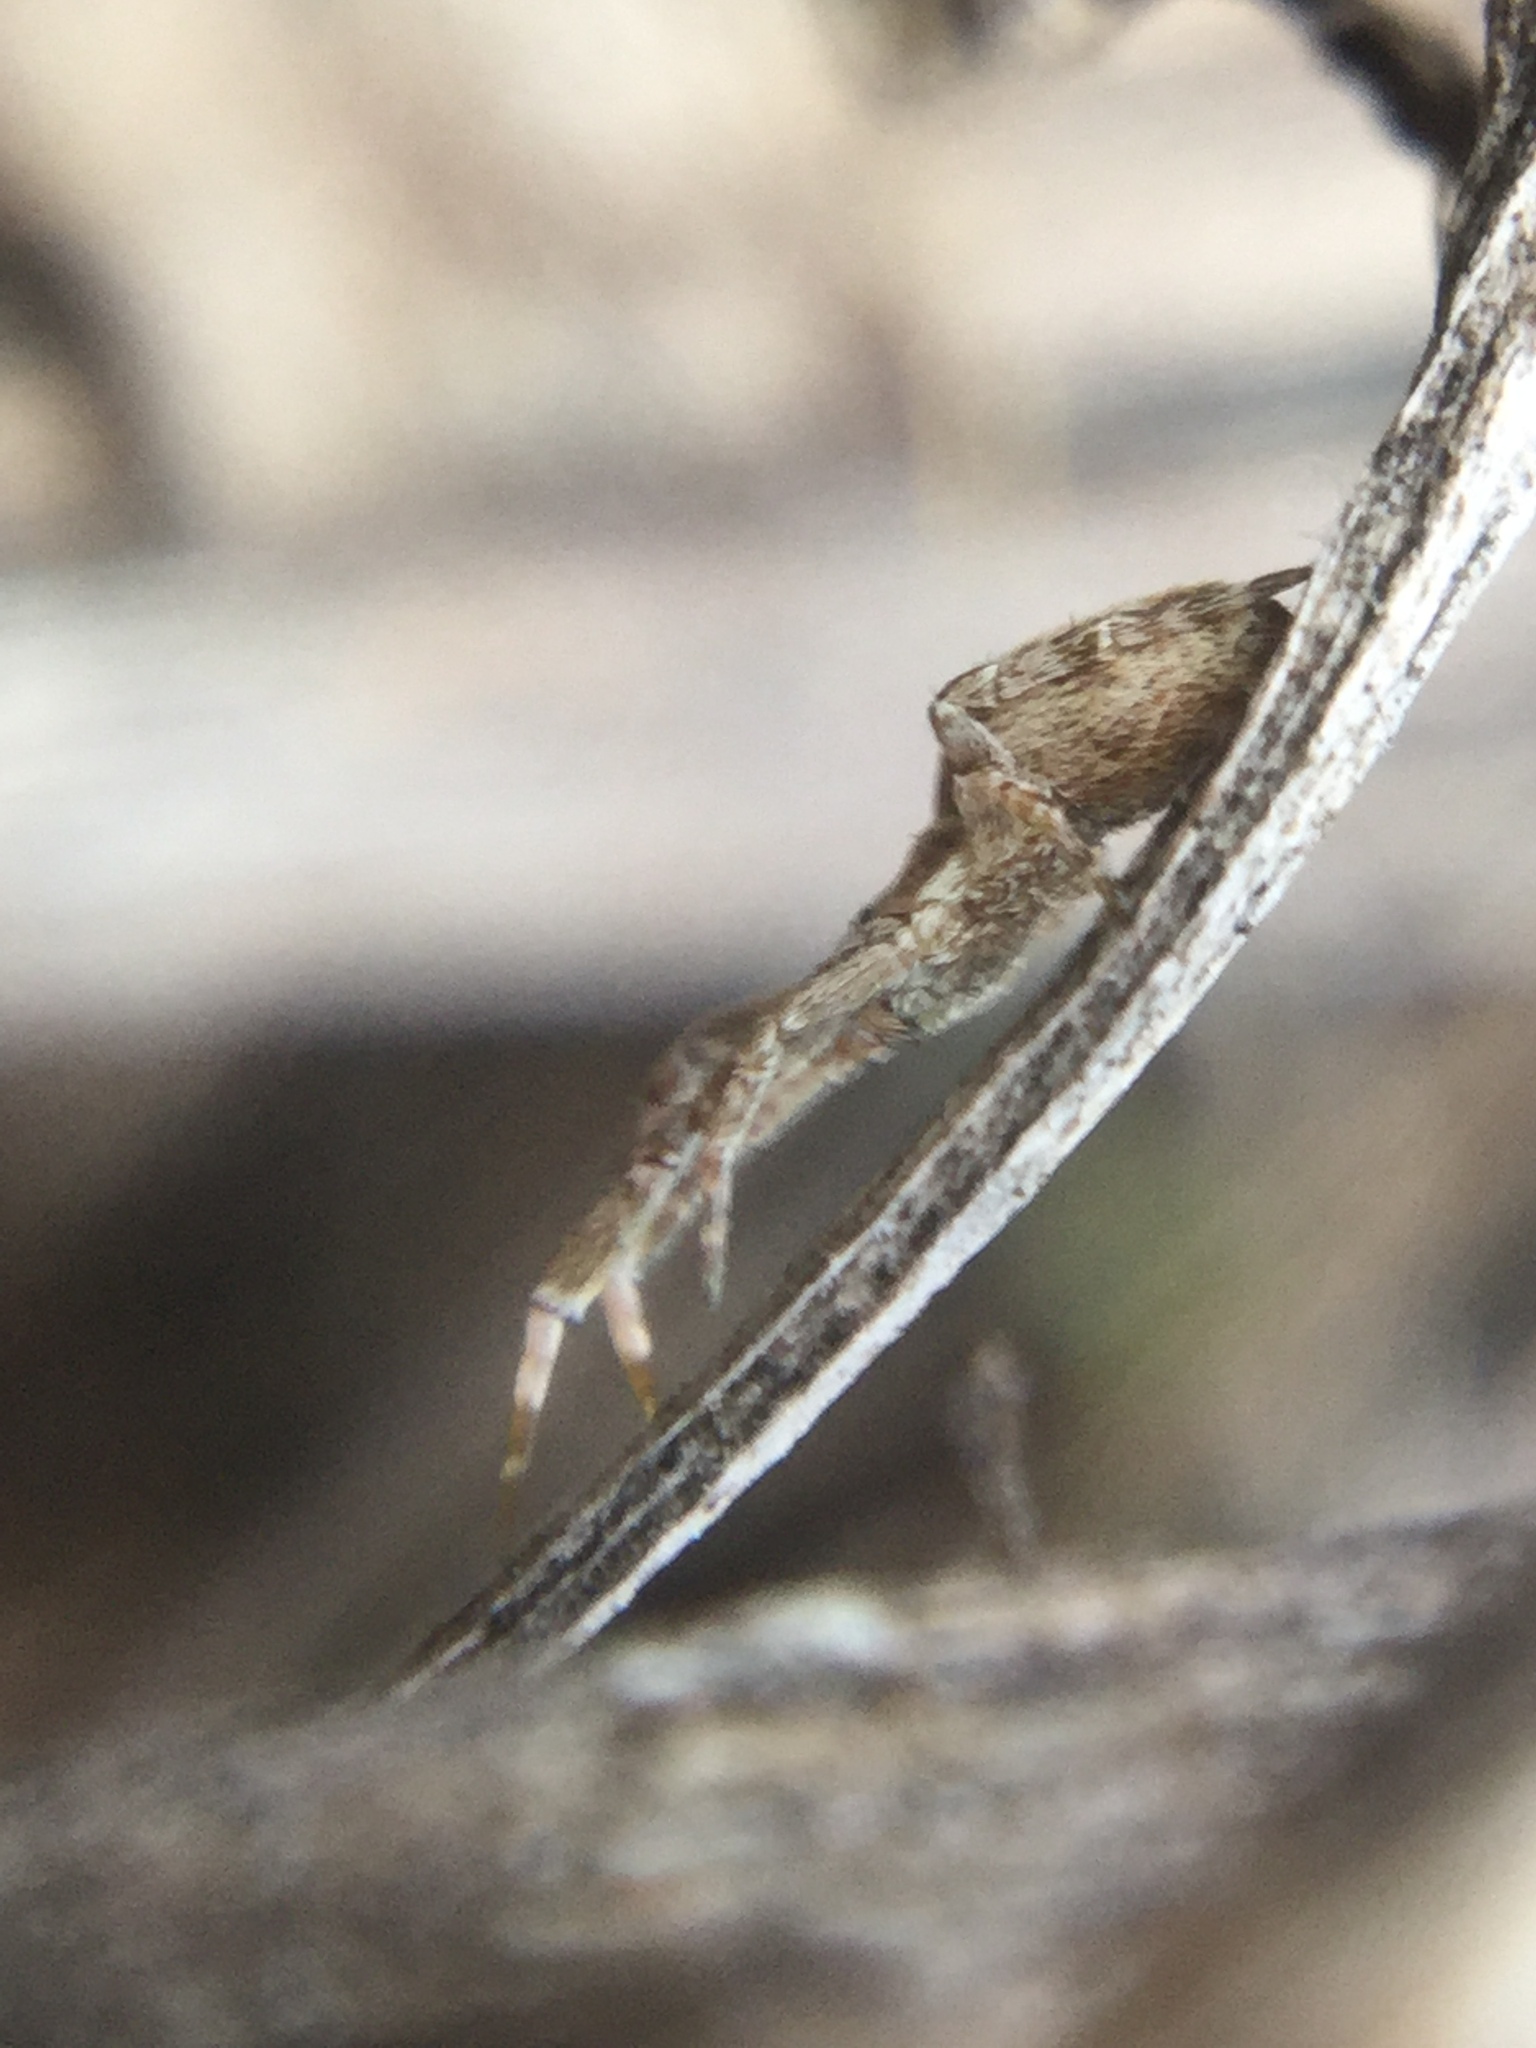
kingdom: Animalia
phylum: Arthropoda
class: Arachnida
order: Araneae
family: Uloboridae
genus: Uloborus
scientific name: Uloborus glomosus
